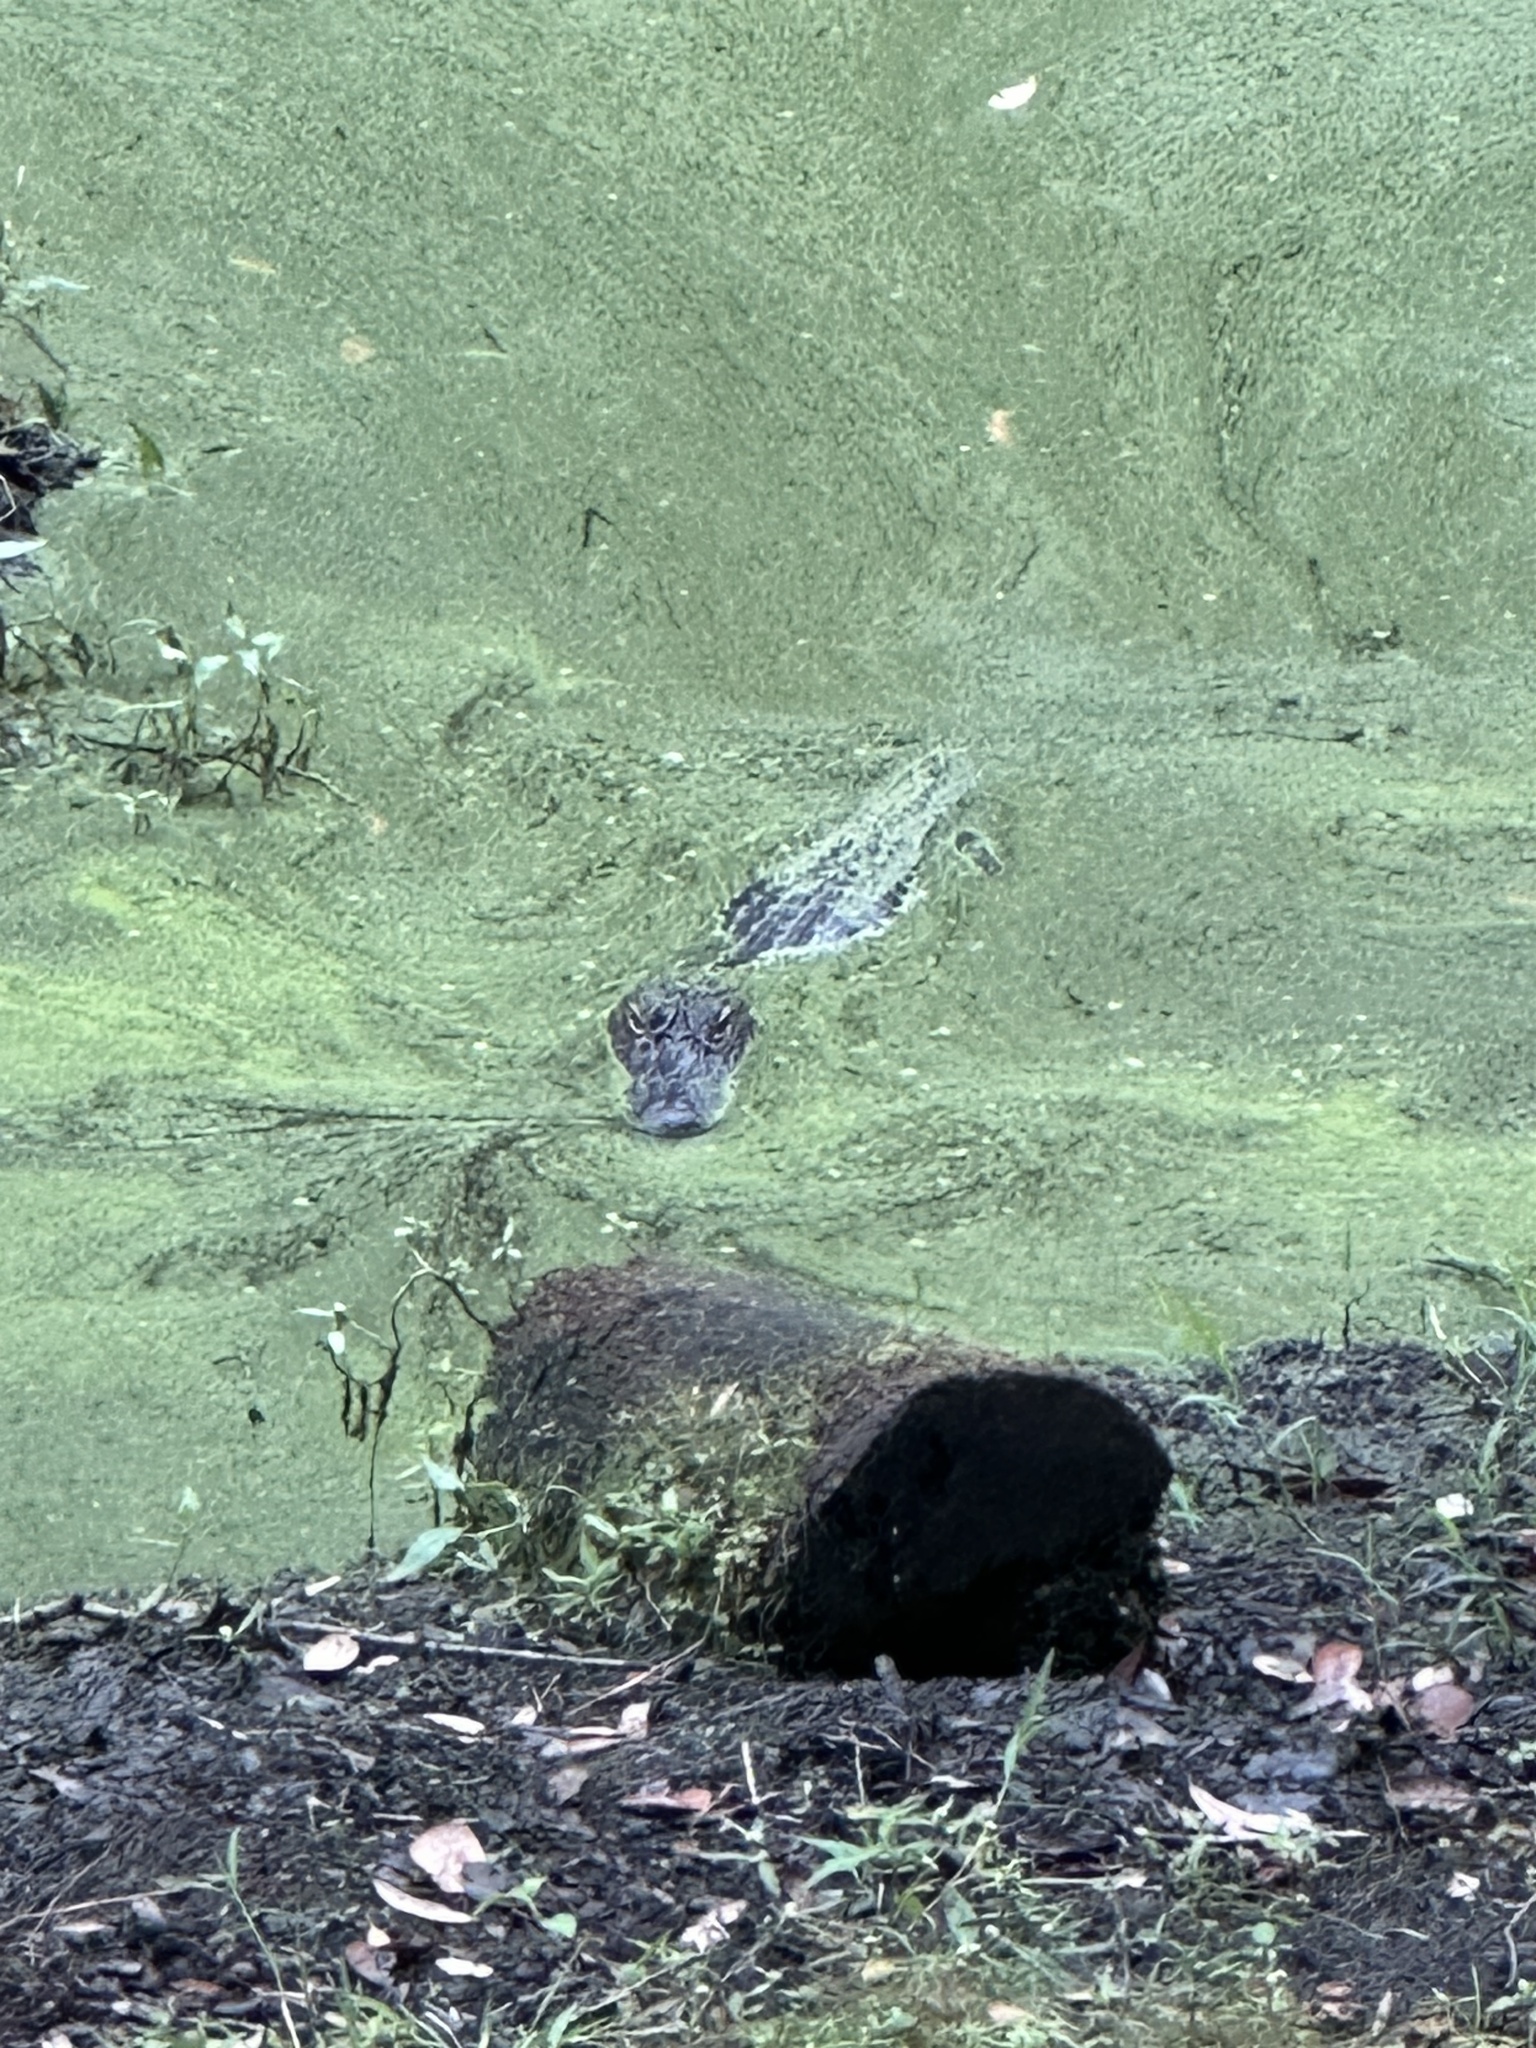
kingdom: Animalia
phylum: Chordata
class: Crocodylia
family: Alligatoridae
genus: Alligator
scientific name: Alligator mississippiensis
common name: American alligator
